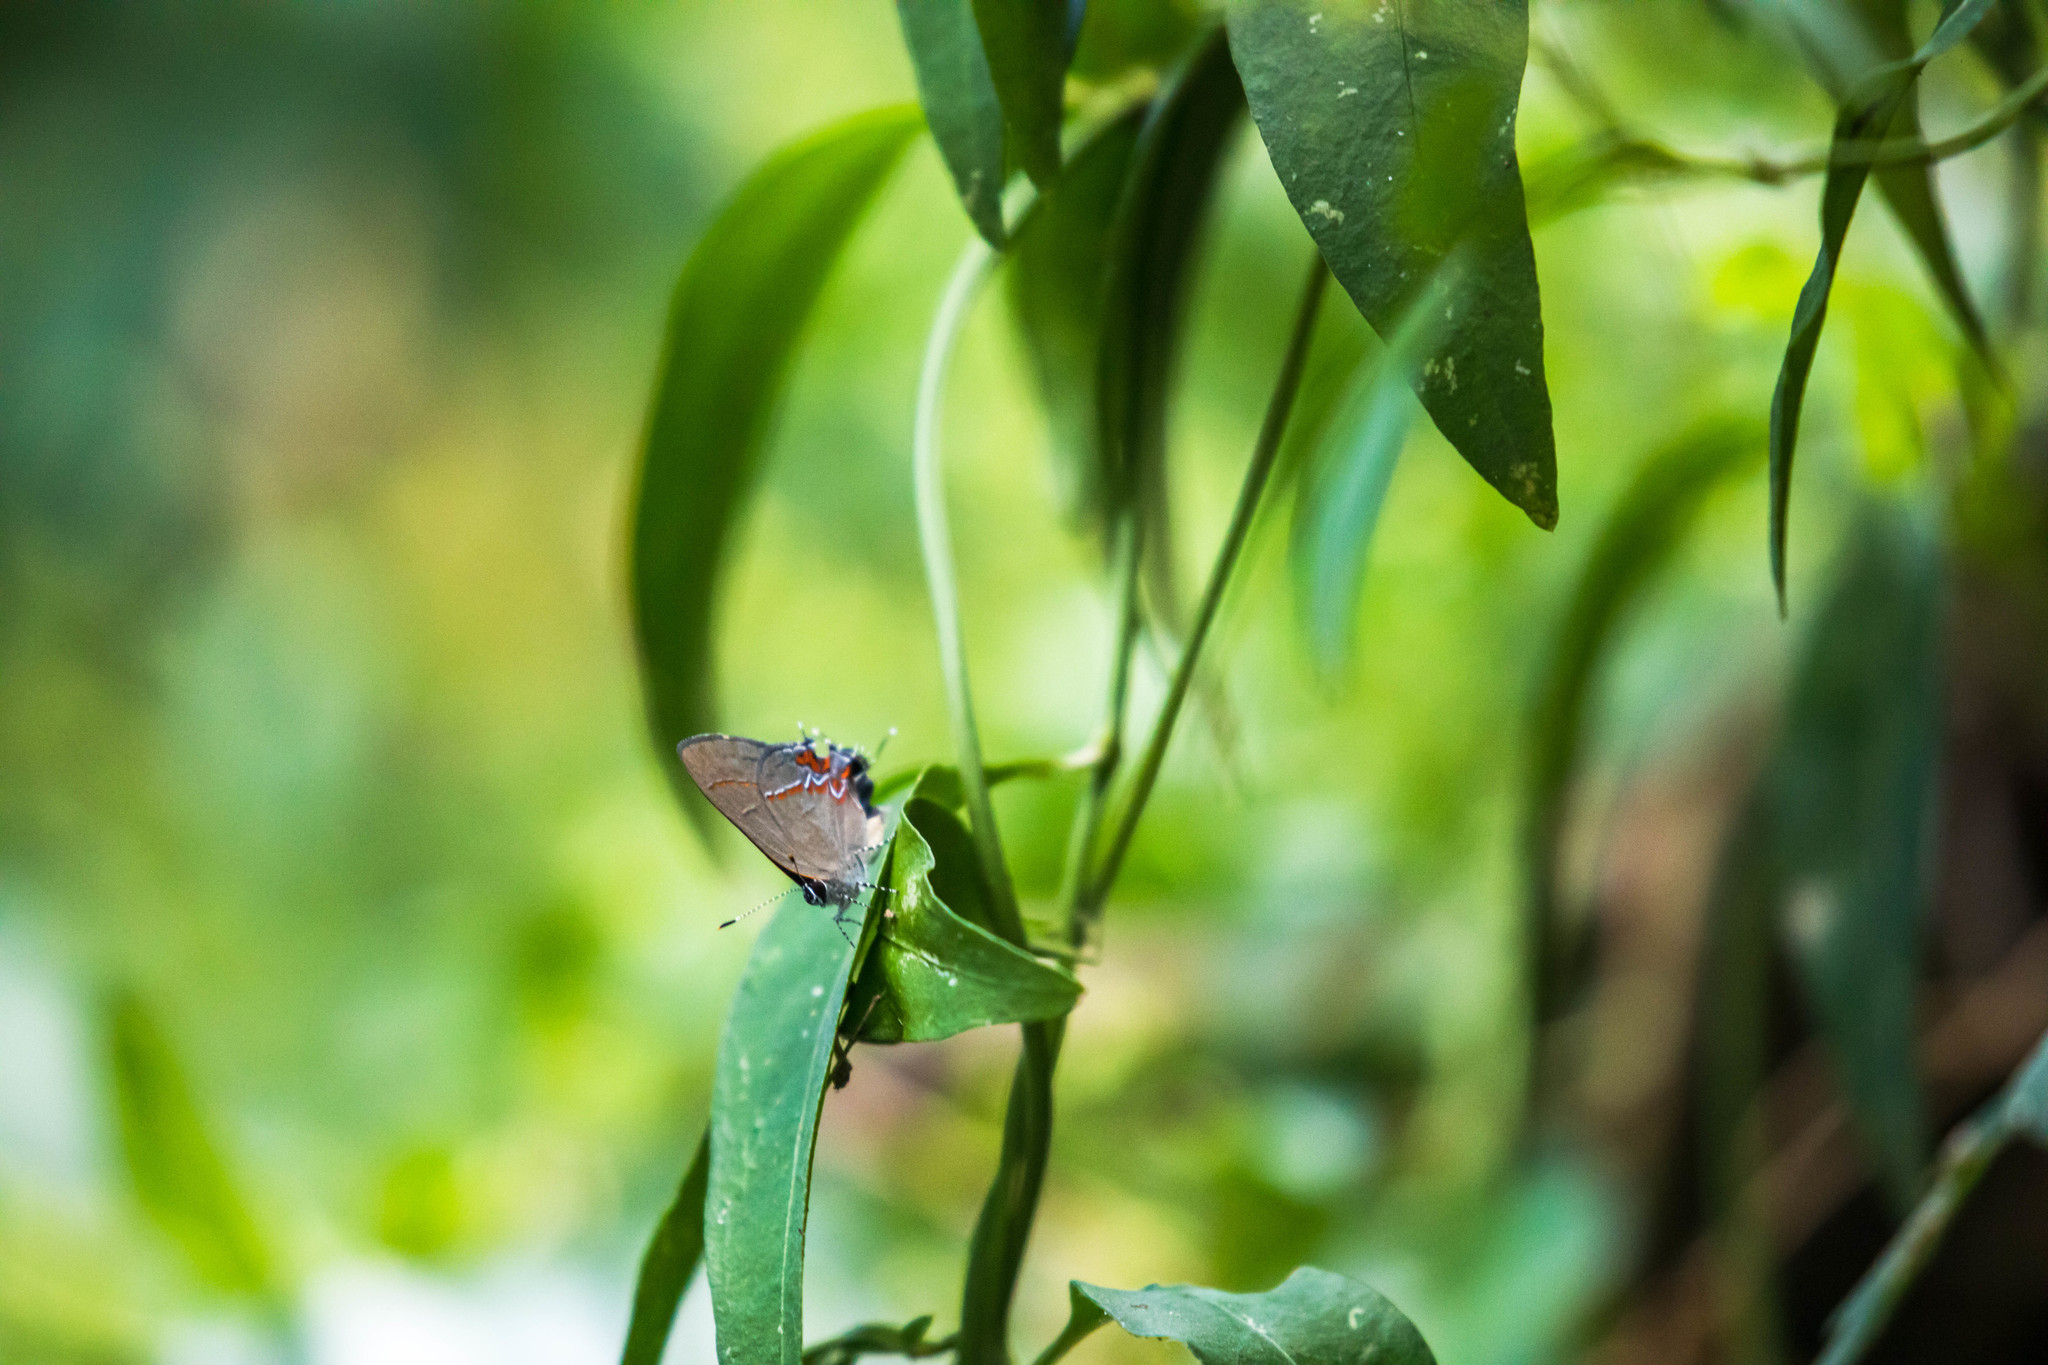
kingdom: Animalia
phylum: Arthropoda
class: Insecta
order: Lepidoptera
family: Lycaenidae
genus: Calycopis
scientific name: Calycopis isobeon
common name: Dusky-blue groundstreak
